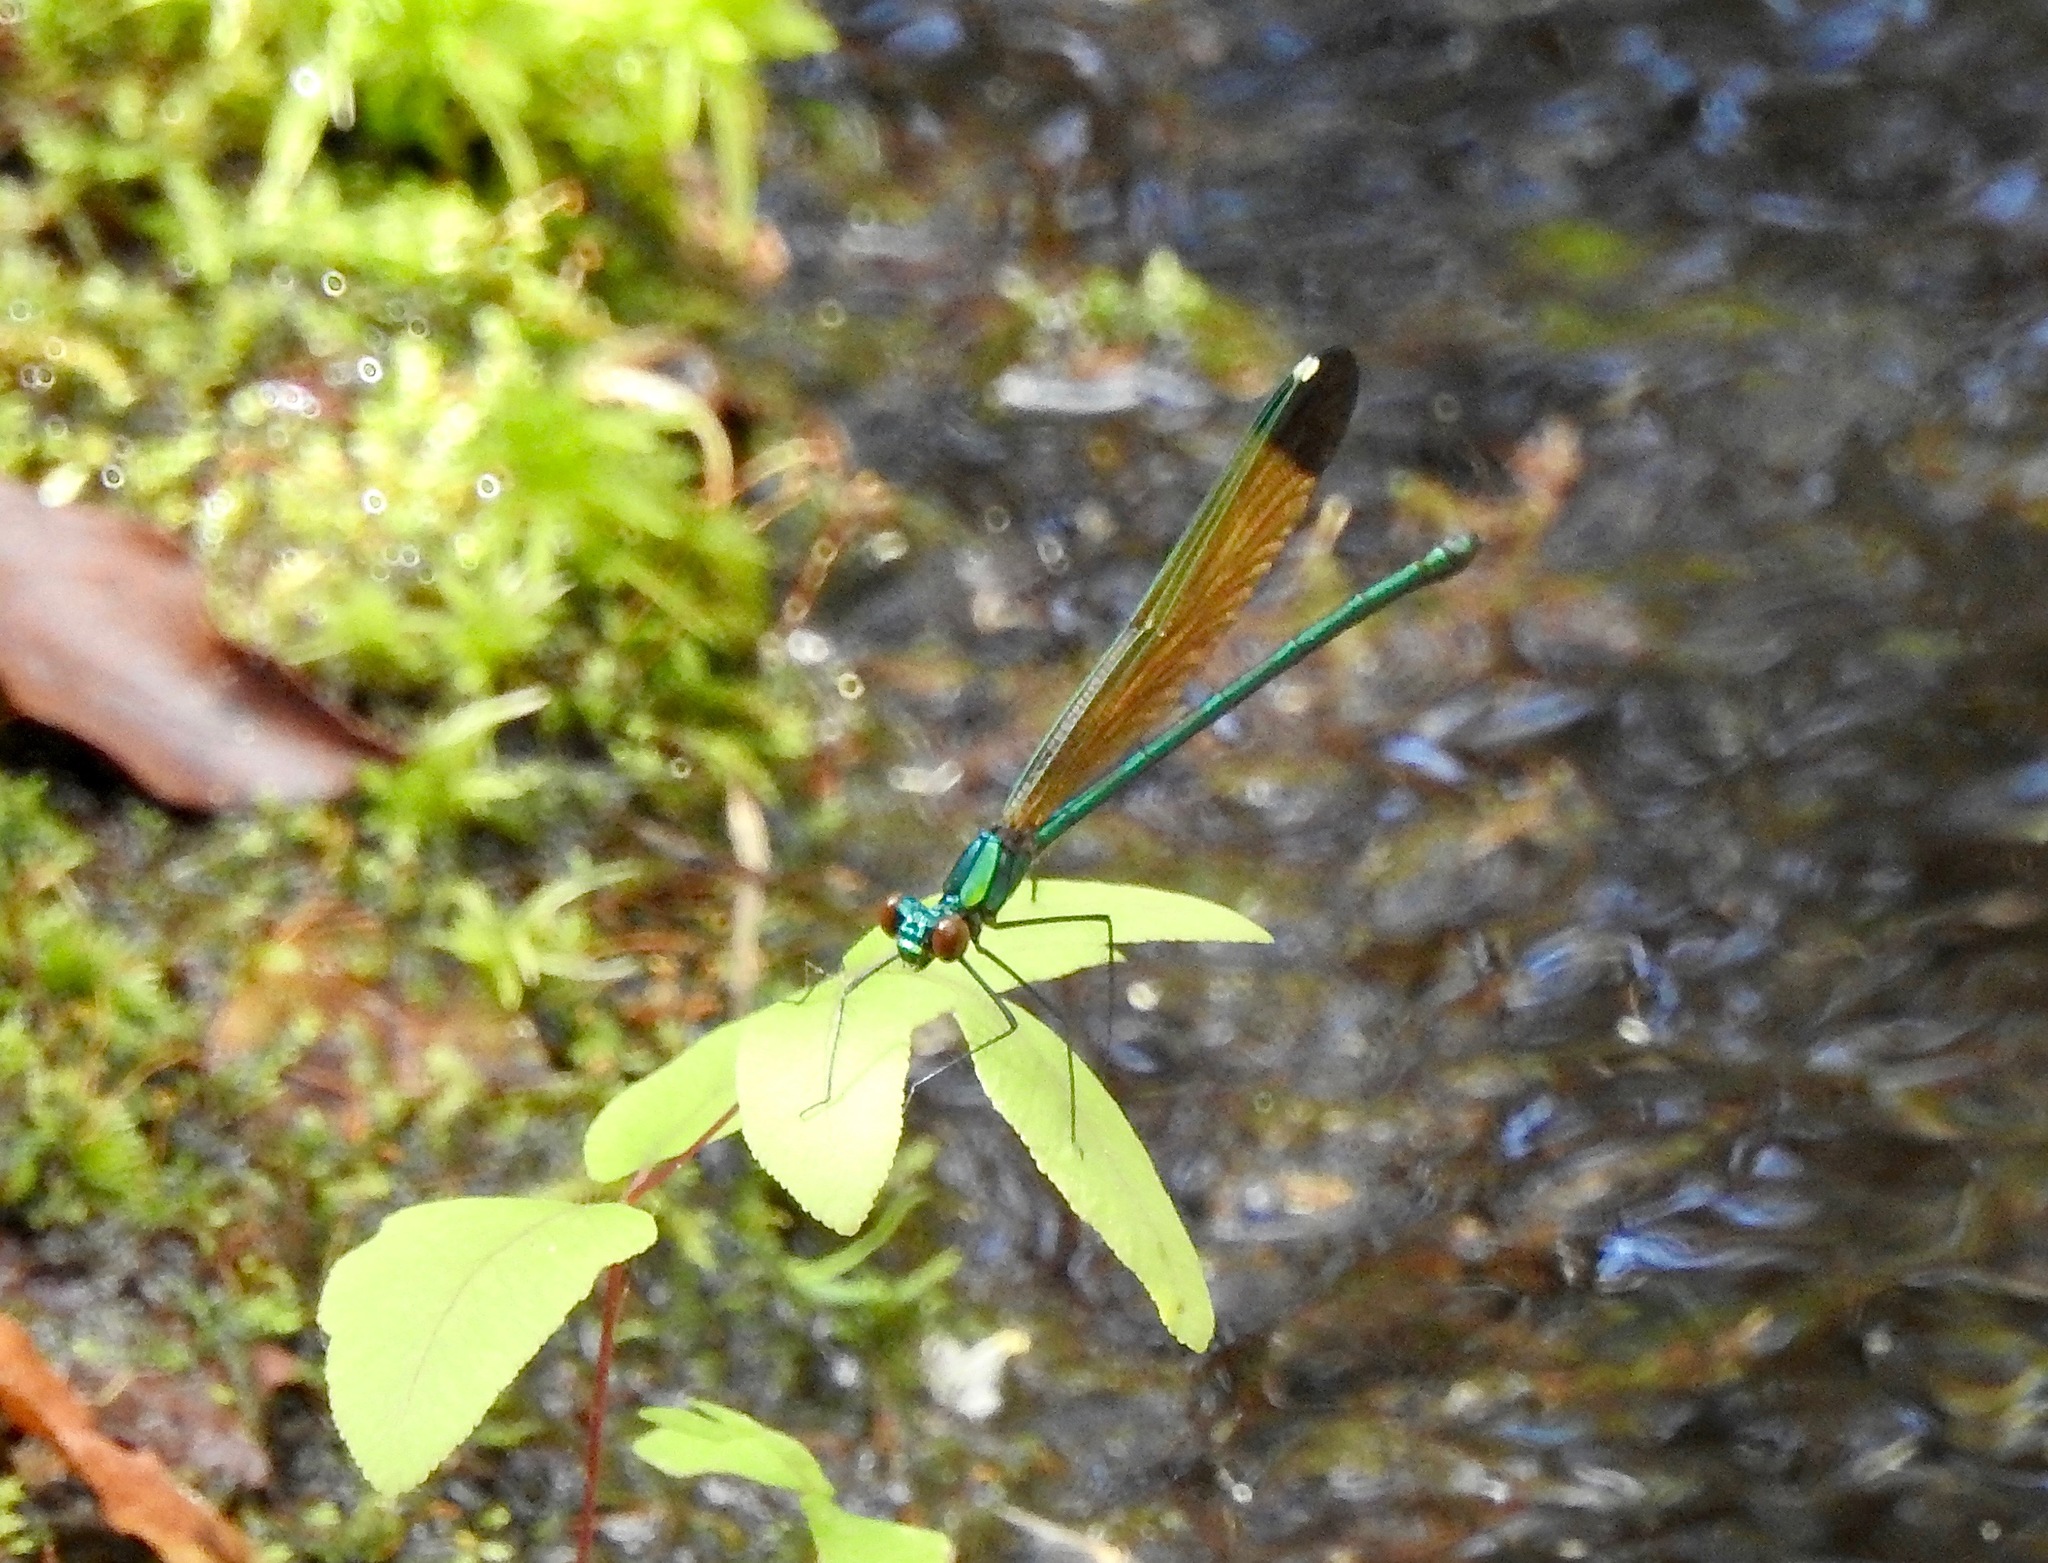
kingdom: Animalia
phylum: Arthropoda
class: Insecta
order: Odonata
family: Calopterygidae
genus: Calopteryx
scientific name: Calopteryx dimidiata
